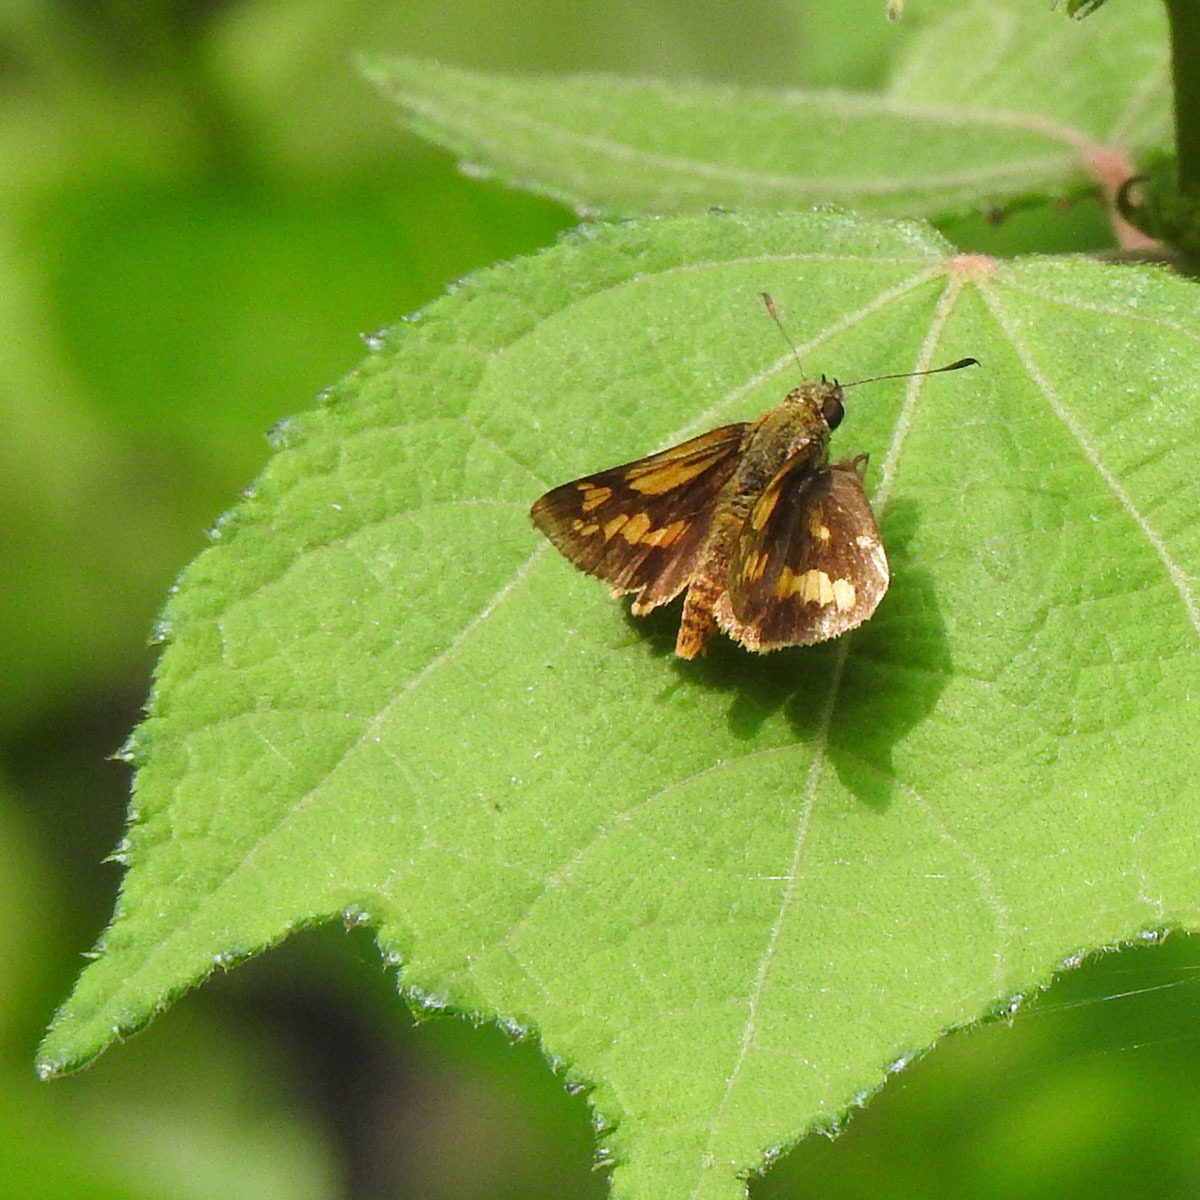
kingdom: Animalia
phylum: Arthropoda
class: Insecta
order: Lepidoptera
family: Hesperiidae
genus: Potanthus
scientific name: Potanthus omaha
